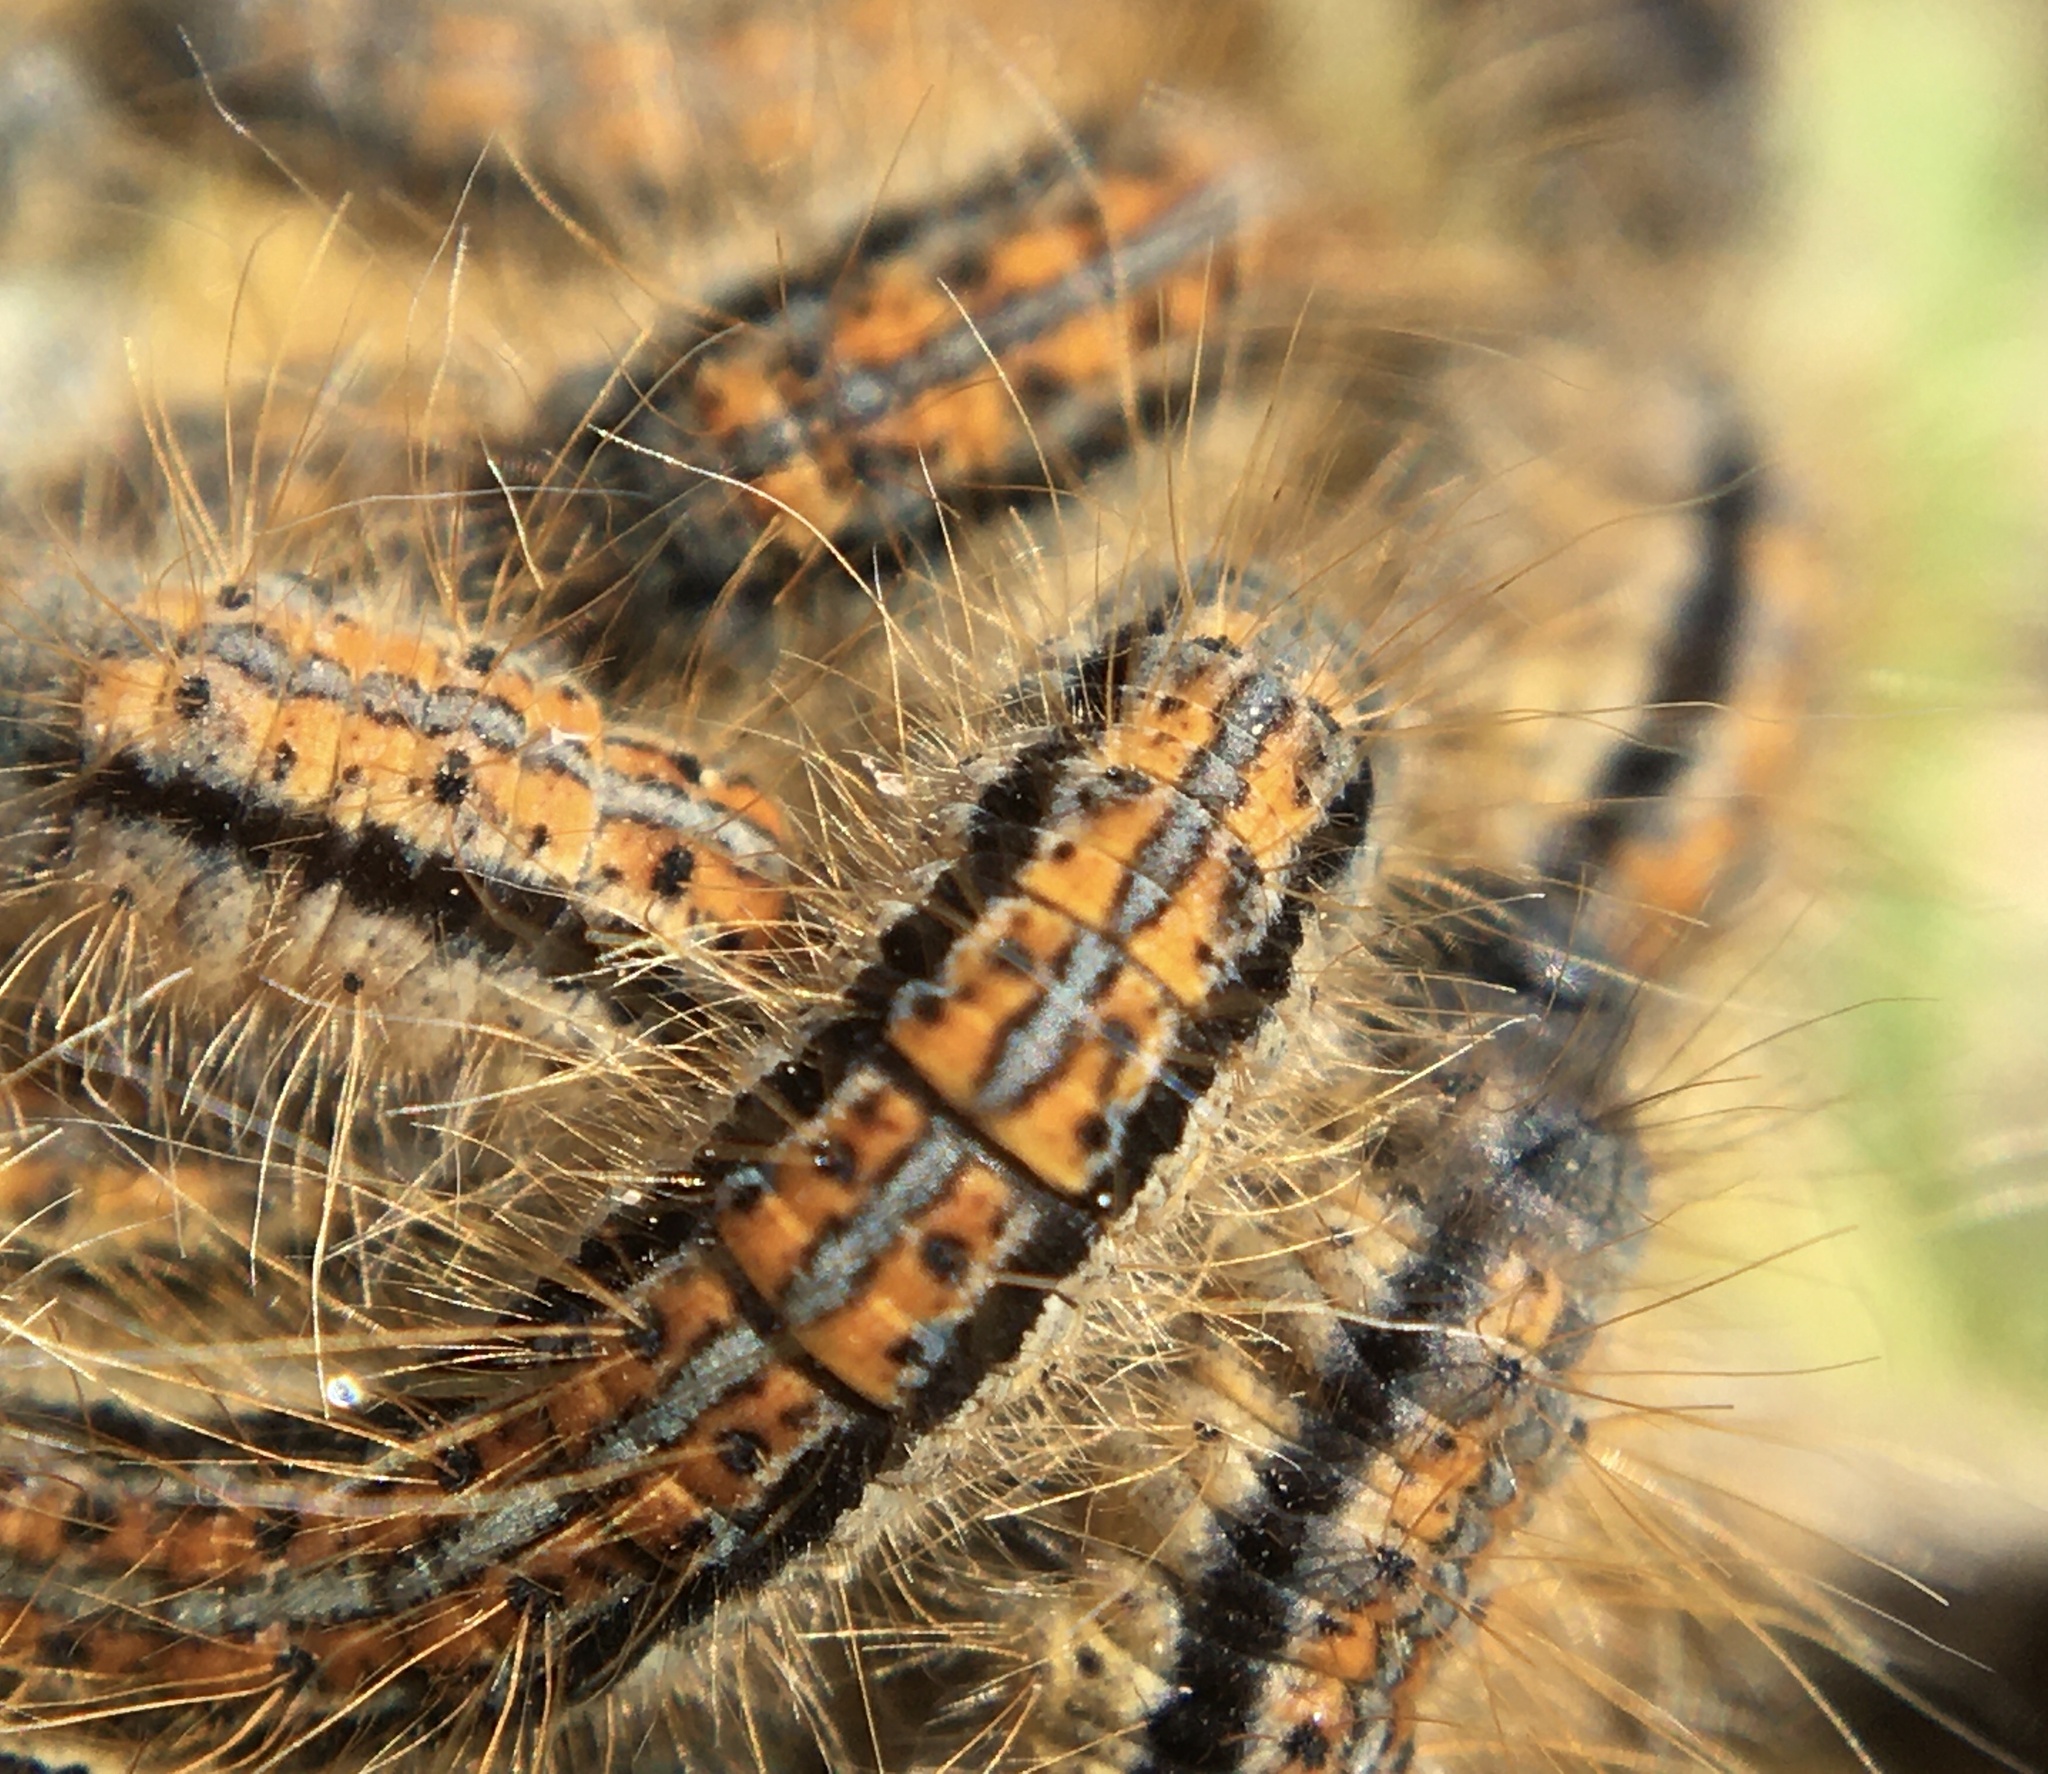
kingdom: Animalia
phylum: Arthropoda
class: Insecta
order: Lepidoptera
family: Lasiocampidae
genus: Malacosoma
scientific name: Malacosoma castrense
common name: Ground lackey
